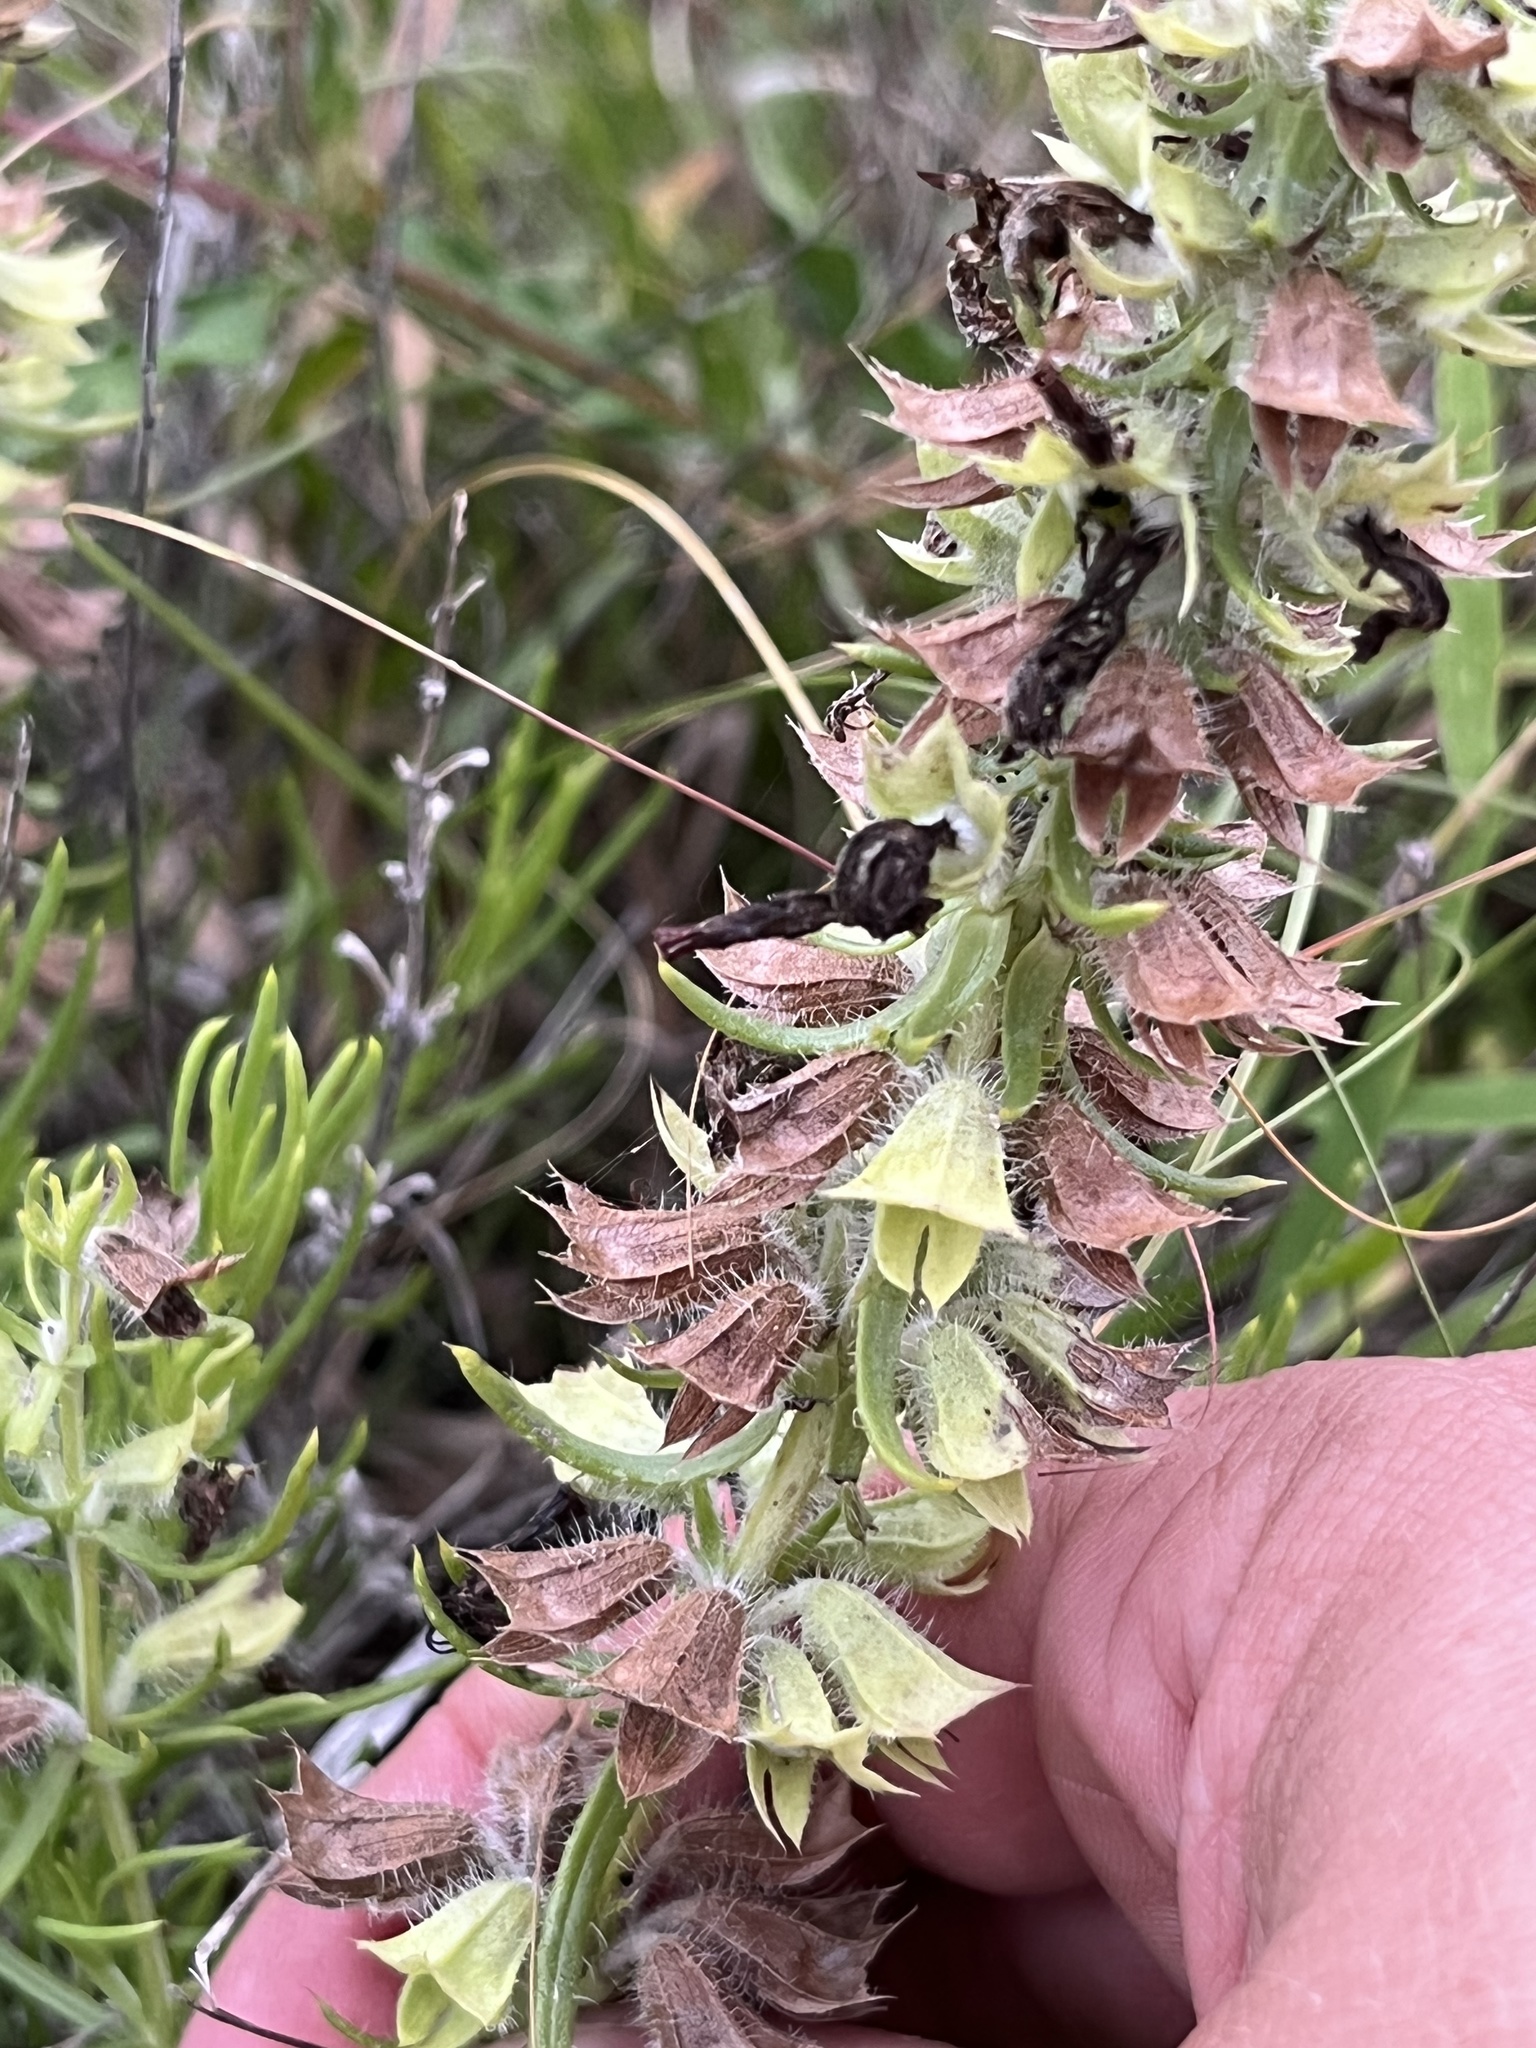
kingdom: Plantae
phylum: Tracheophyta
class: Magnoliopsida
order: Lamiales
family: Lamiaceae
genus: Salvia
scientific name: Salvia engelmannii
